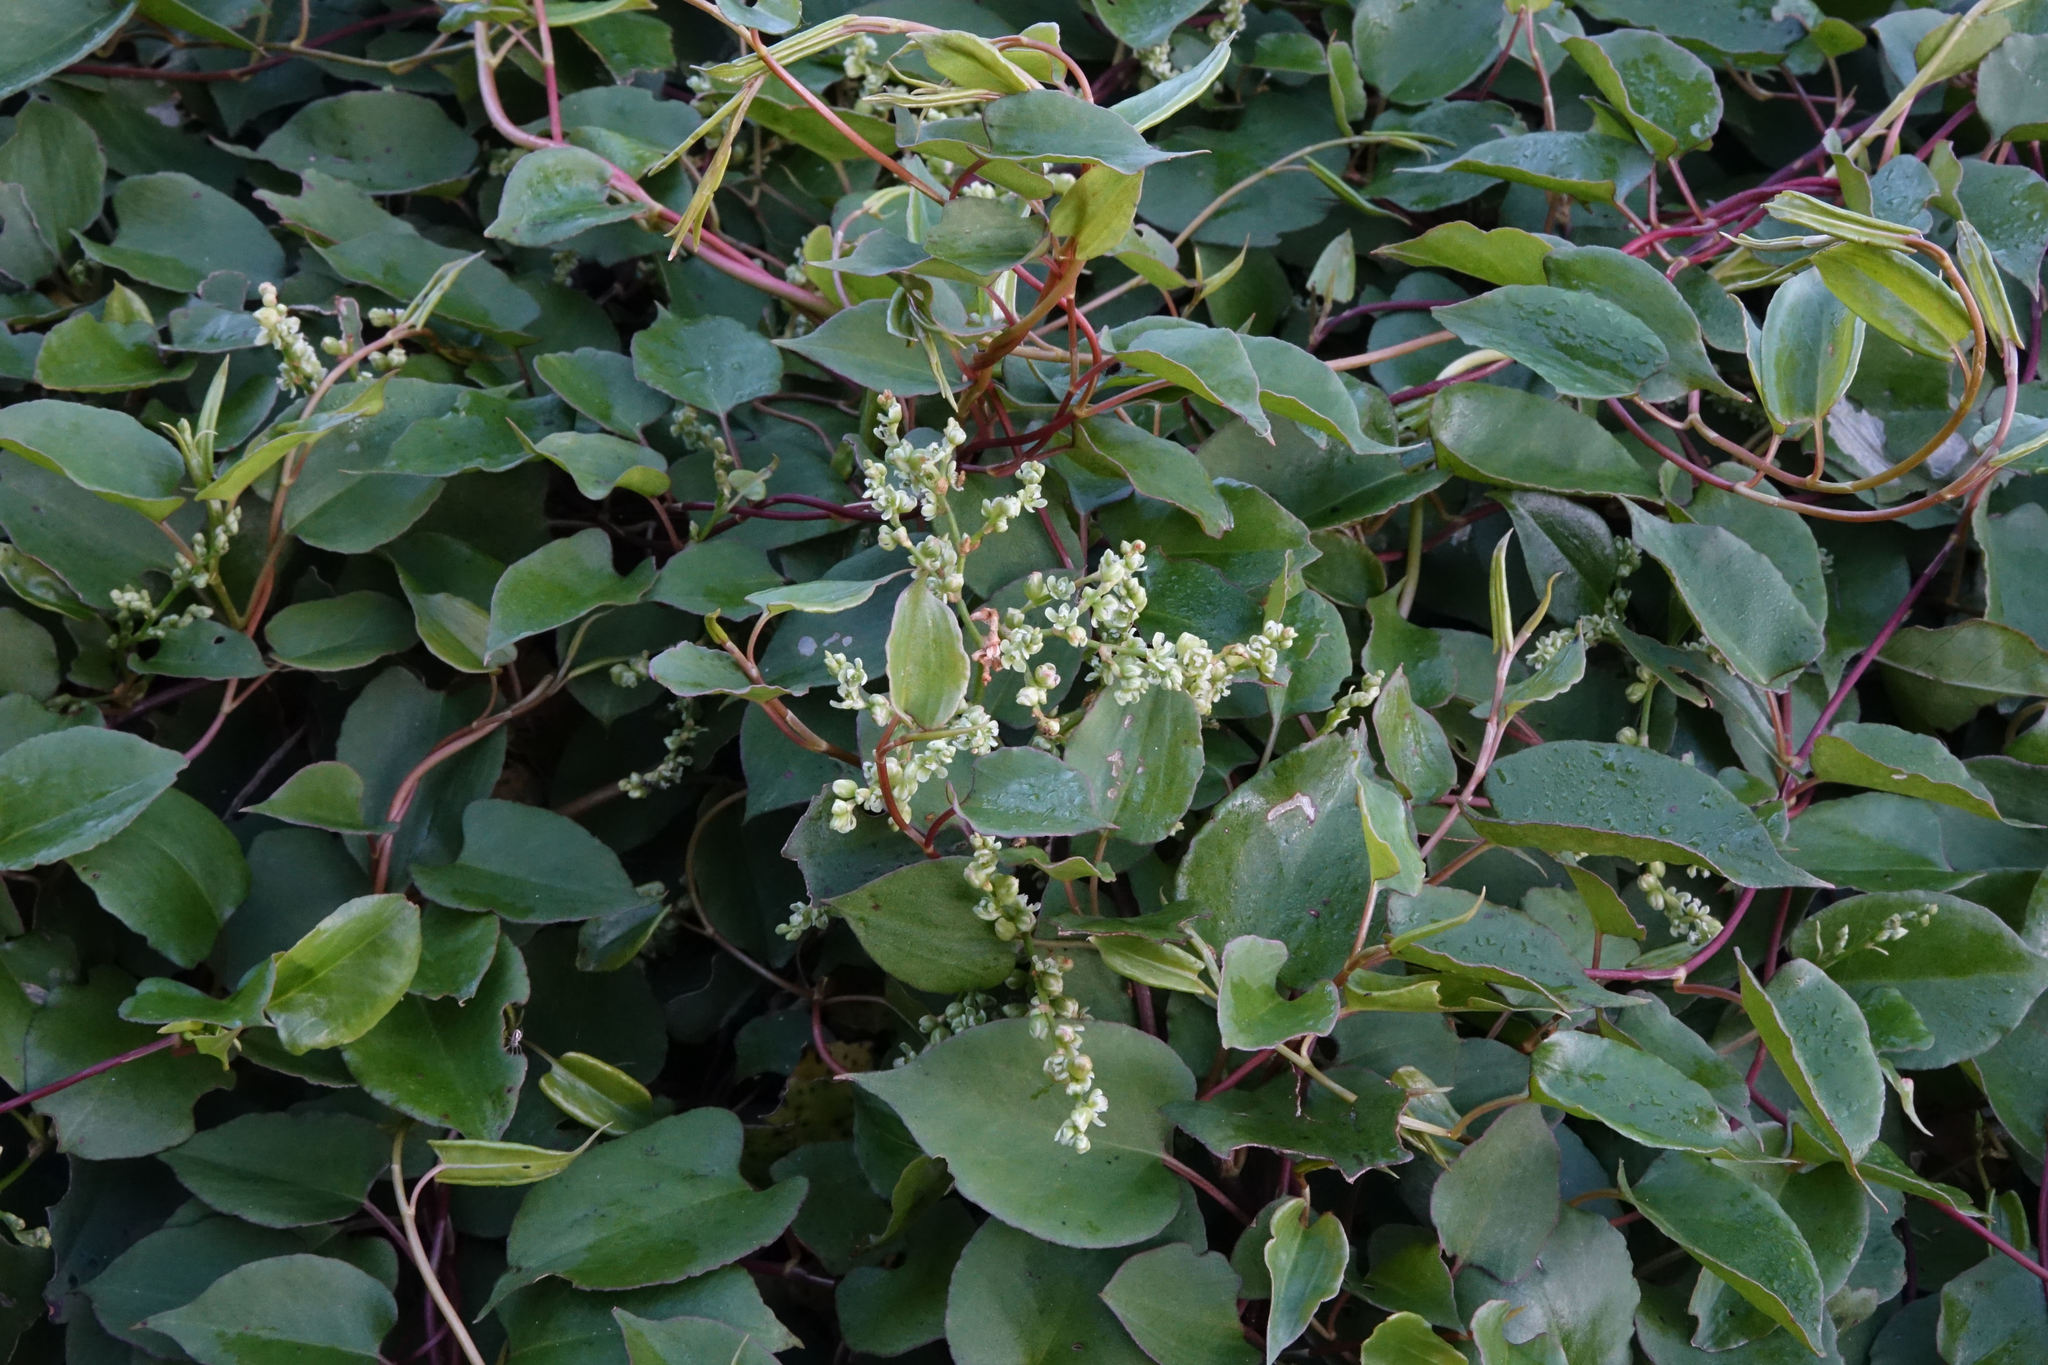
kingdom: Plantae
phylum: Tracheophyta
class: Magnoliopsida
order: Caryophyllales
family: Polygonaceae
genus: Muehlenbeckia
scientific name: Muehlenbeckia australis
